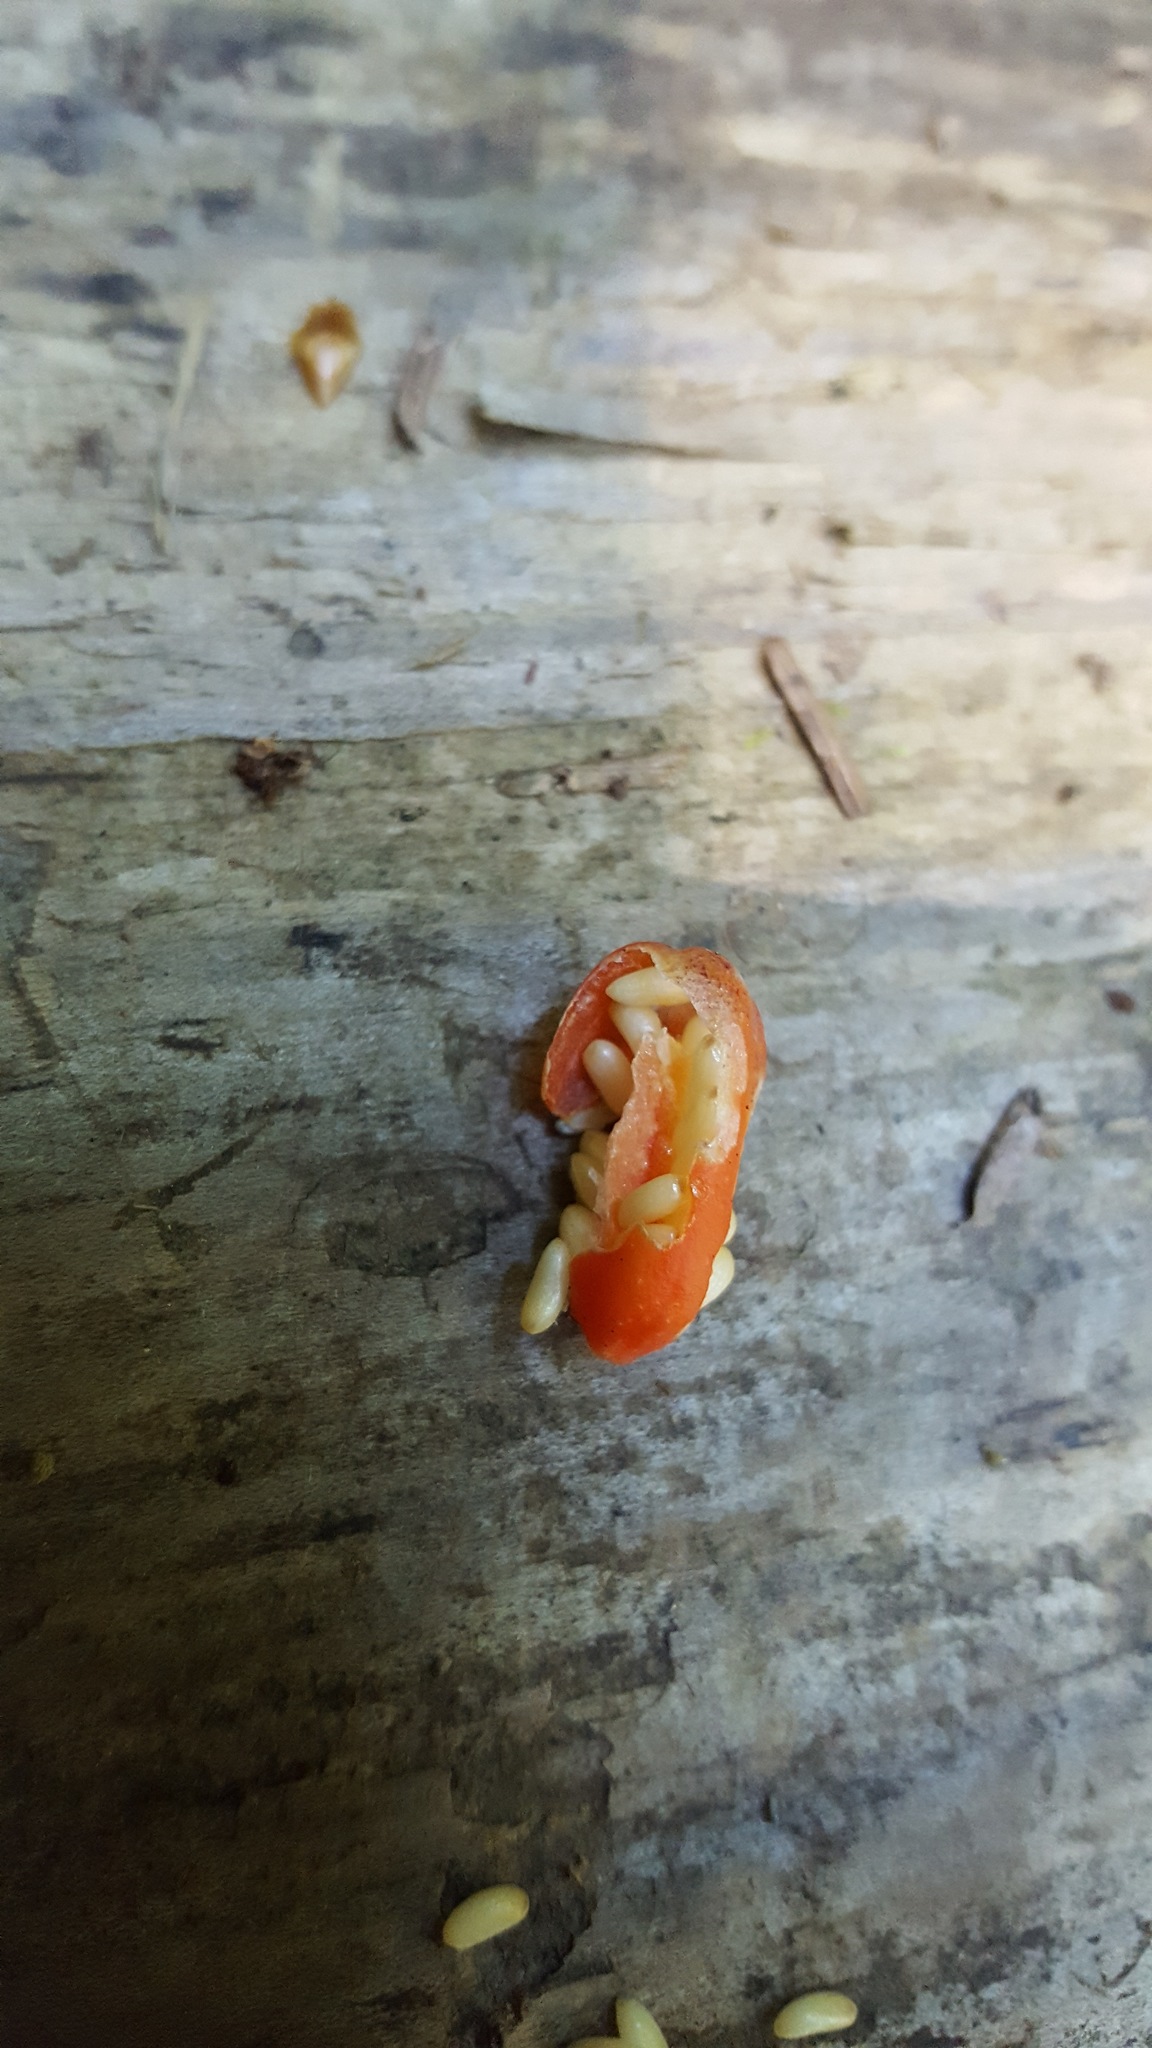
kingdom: Plantae
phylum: Tracheophyta
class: Liliopsida
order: Liliales
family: Liliaceae
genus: Streptopus
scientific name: Streptopus amplexifolius
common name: Clasp twisted stalk
